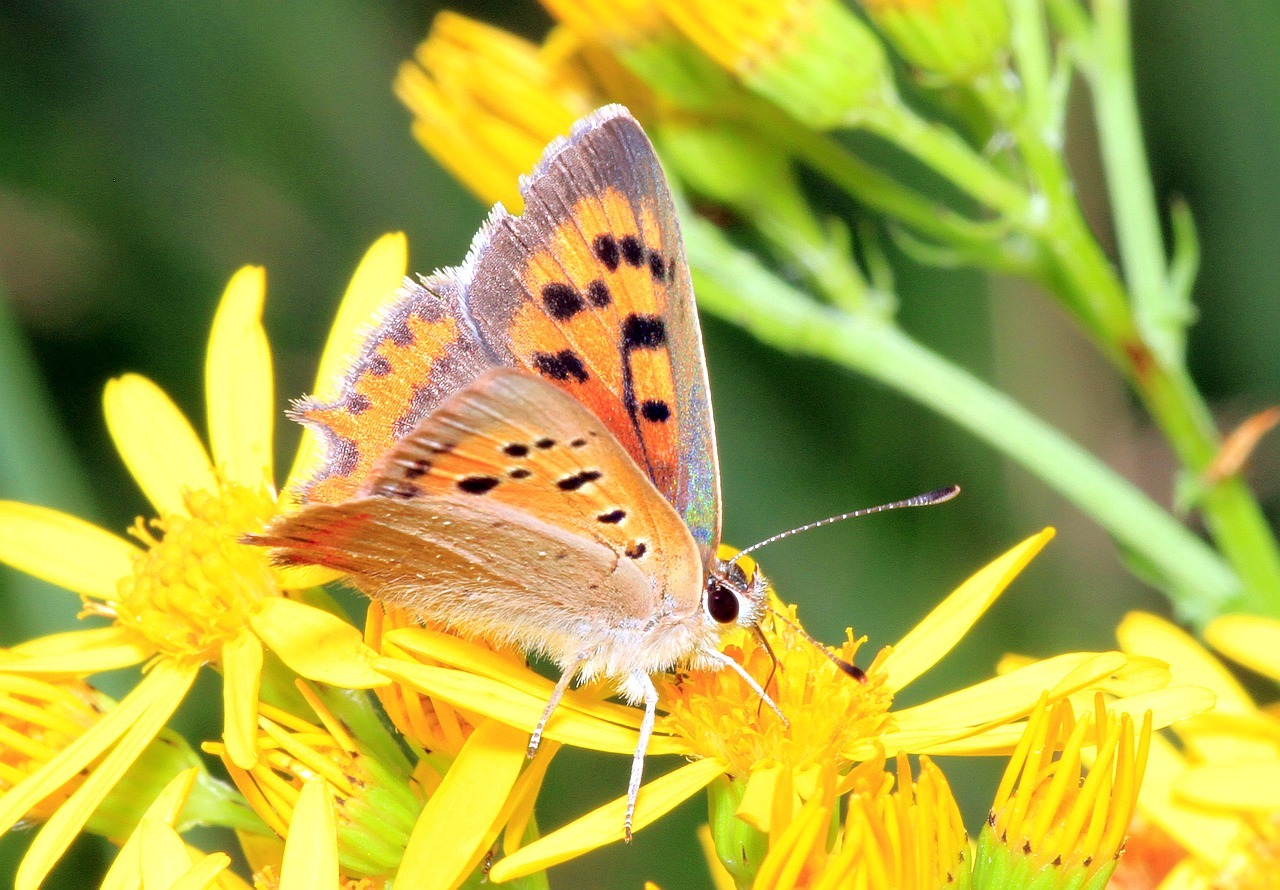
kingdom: Animalia
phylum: Arthropoda
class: Insecta
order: Lepidoptera
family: Lycaenidae
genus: Lycaena
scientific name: Lycaena phlaeas
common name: Small copper
